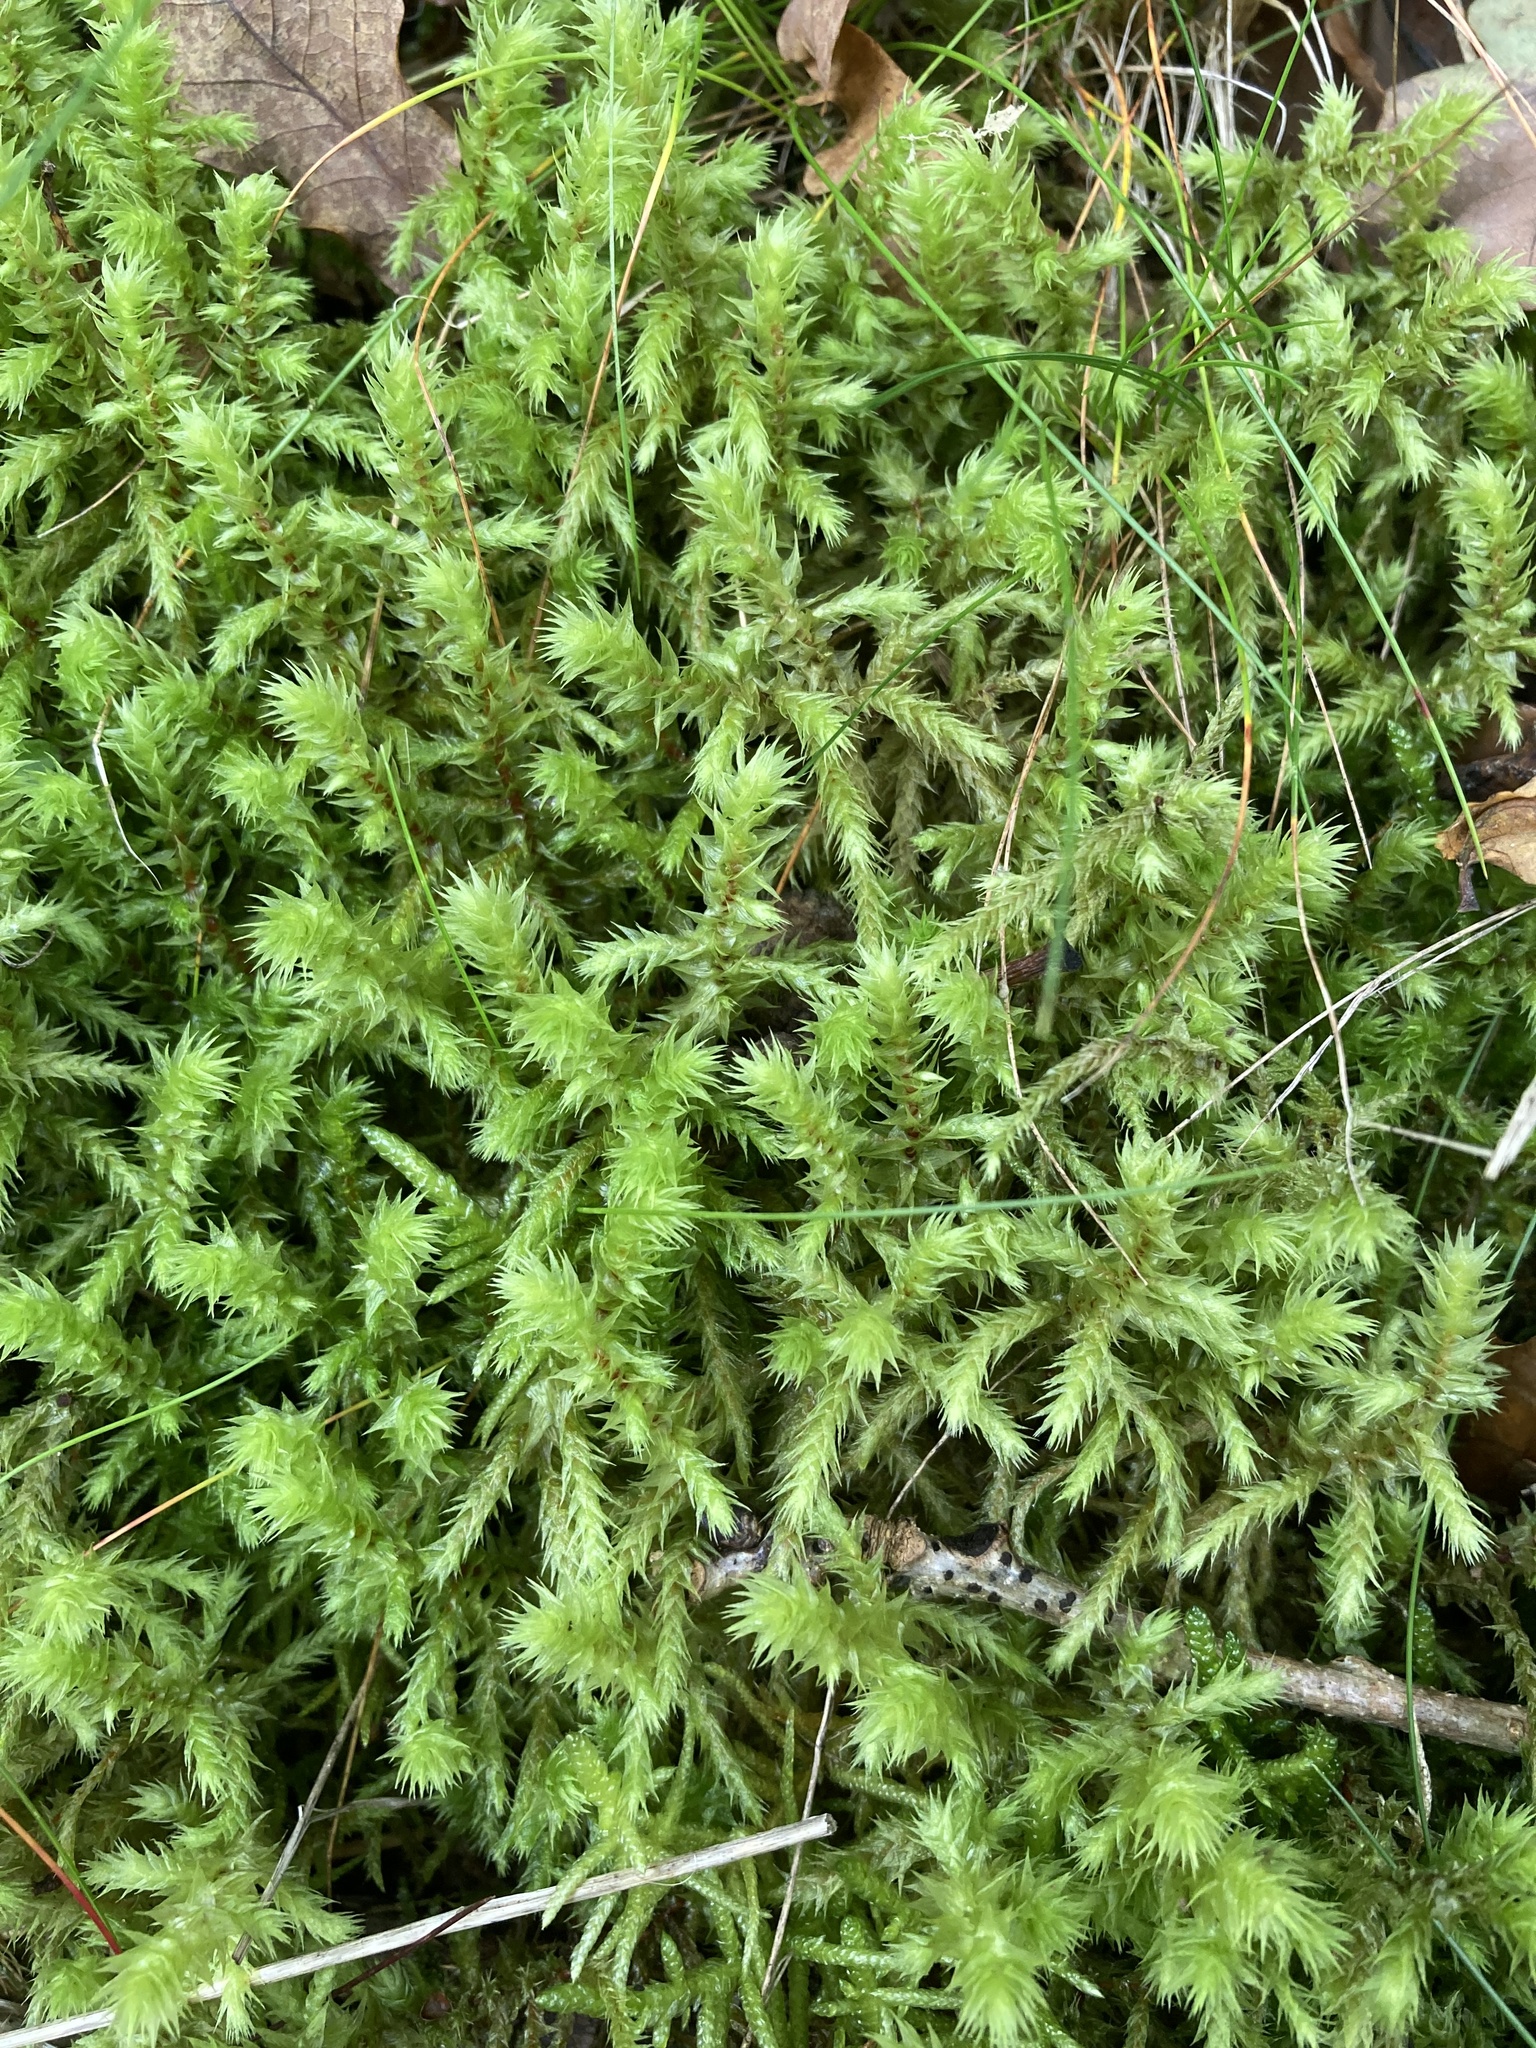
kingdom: Plantae
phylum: Bryophyta
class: Bryopsida
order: Hypnales
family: Hylocomiaceae
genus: Hylocomiadelphus
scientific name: Hylocomiadelphus triquetrus
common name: Rough goose neck moss
